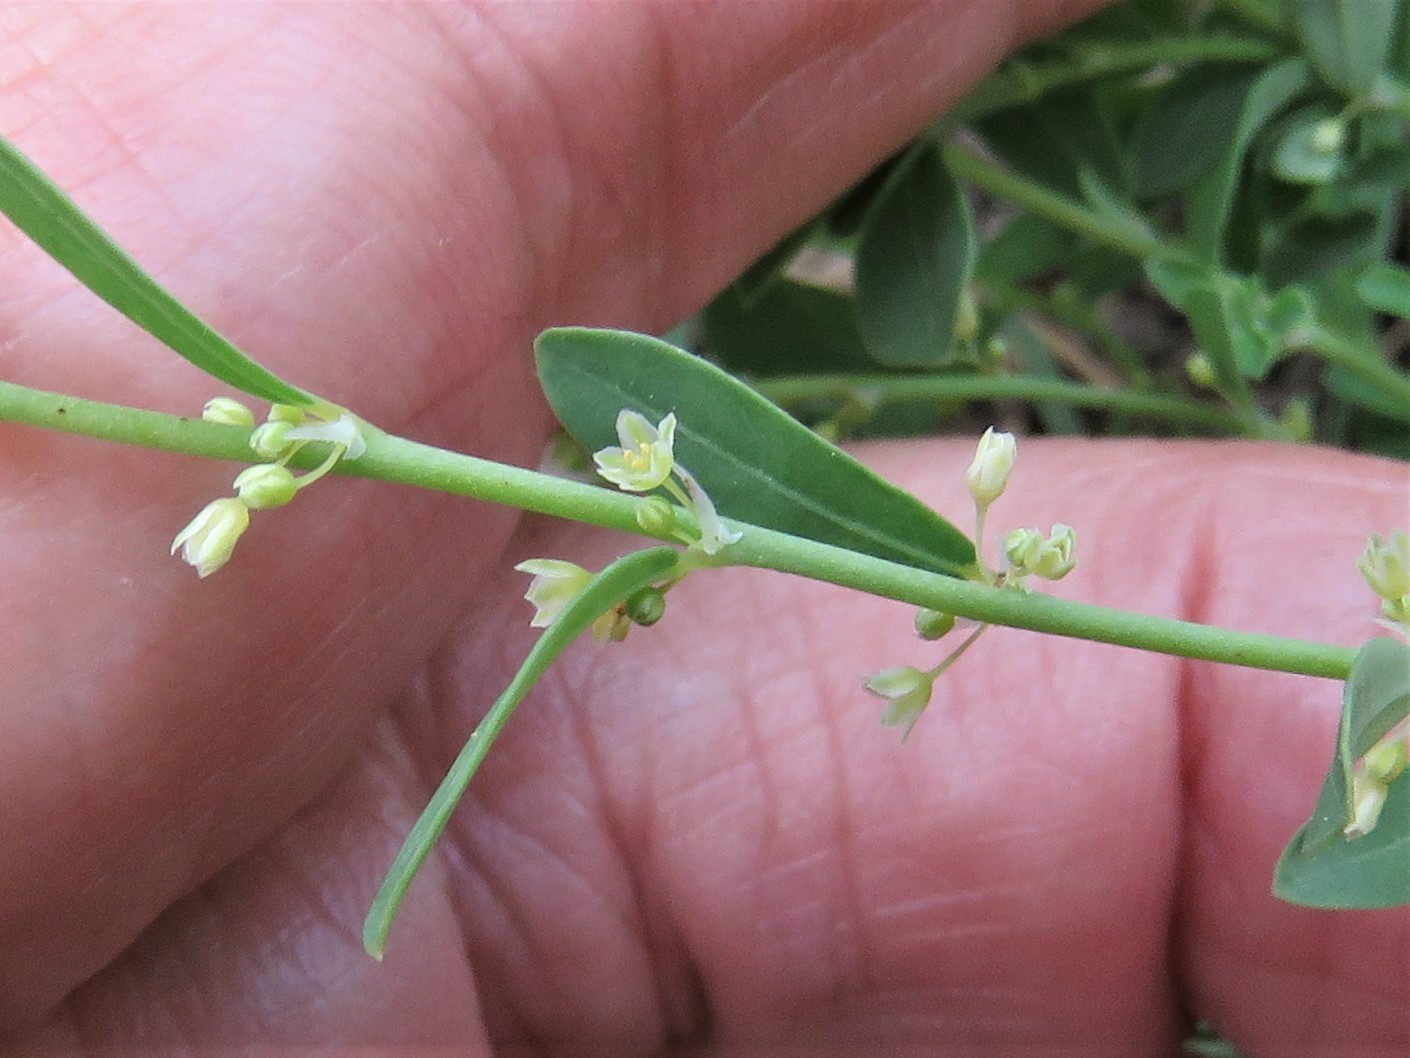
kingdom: Plantae
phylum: Tracheophyta
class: Magnoliopsida
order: Malpighiales
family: Phyllanthaceae
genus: Phyllanthus
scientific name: Phyllanthus polygonoides
